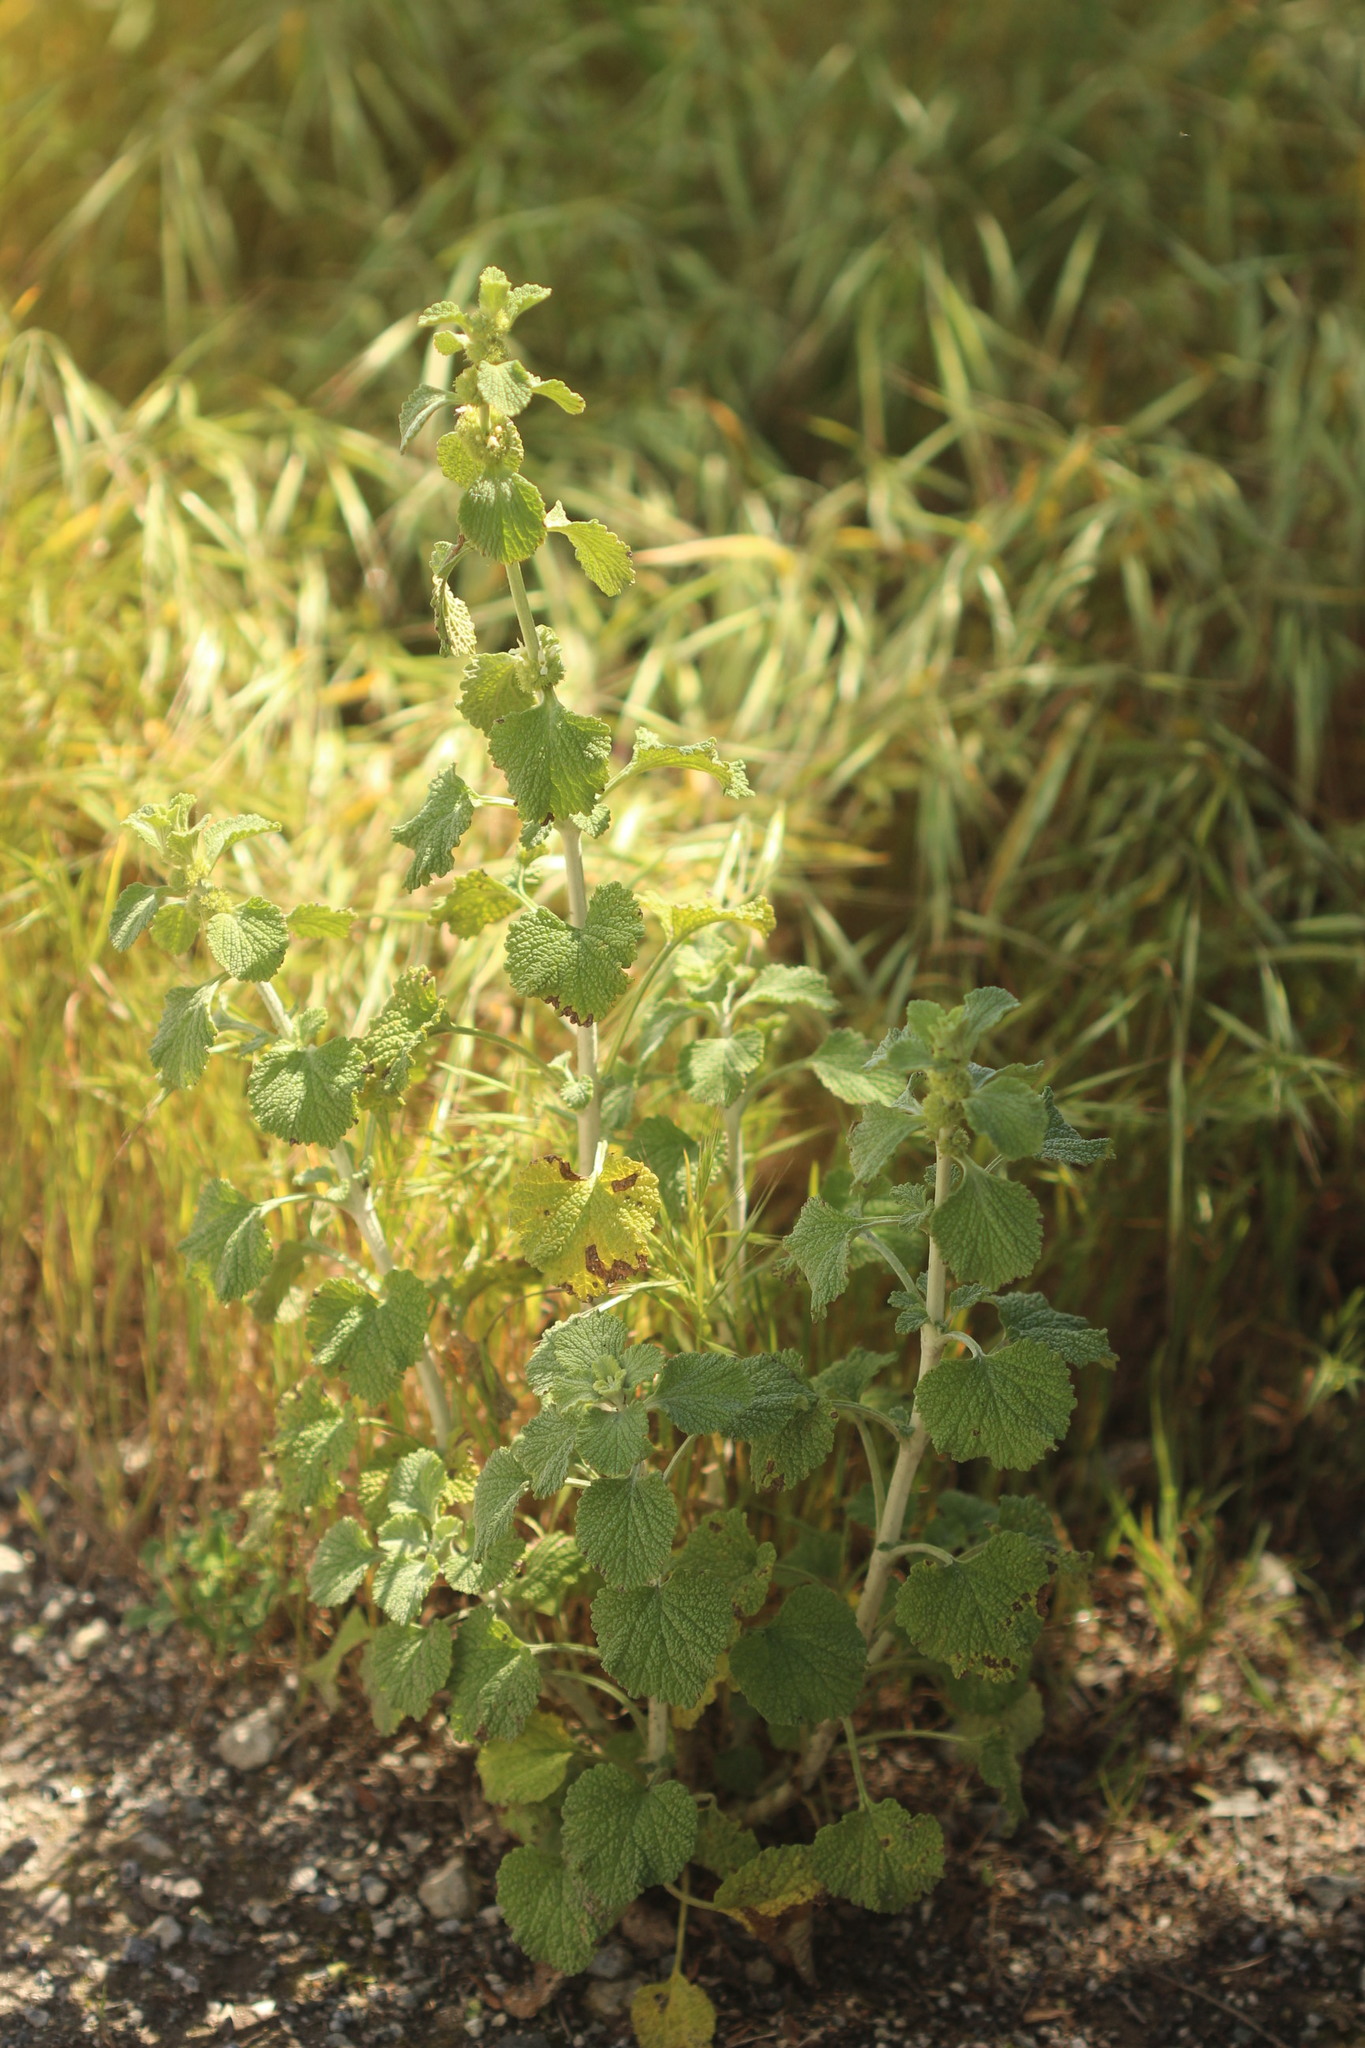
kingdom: Plantae
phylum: Tracheophyta
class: Magnoliopsida
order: Lamiales
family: Lamiaceae
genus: Marrubium
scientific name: Marrubium vulgare
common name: Horehound
